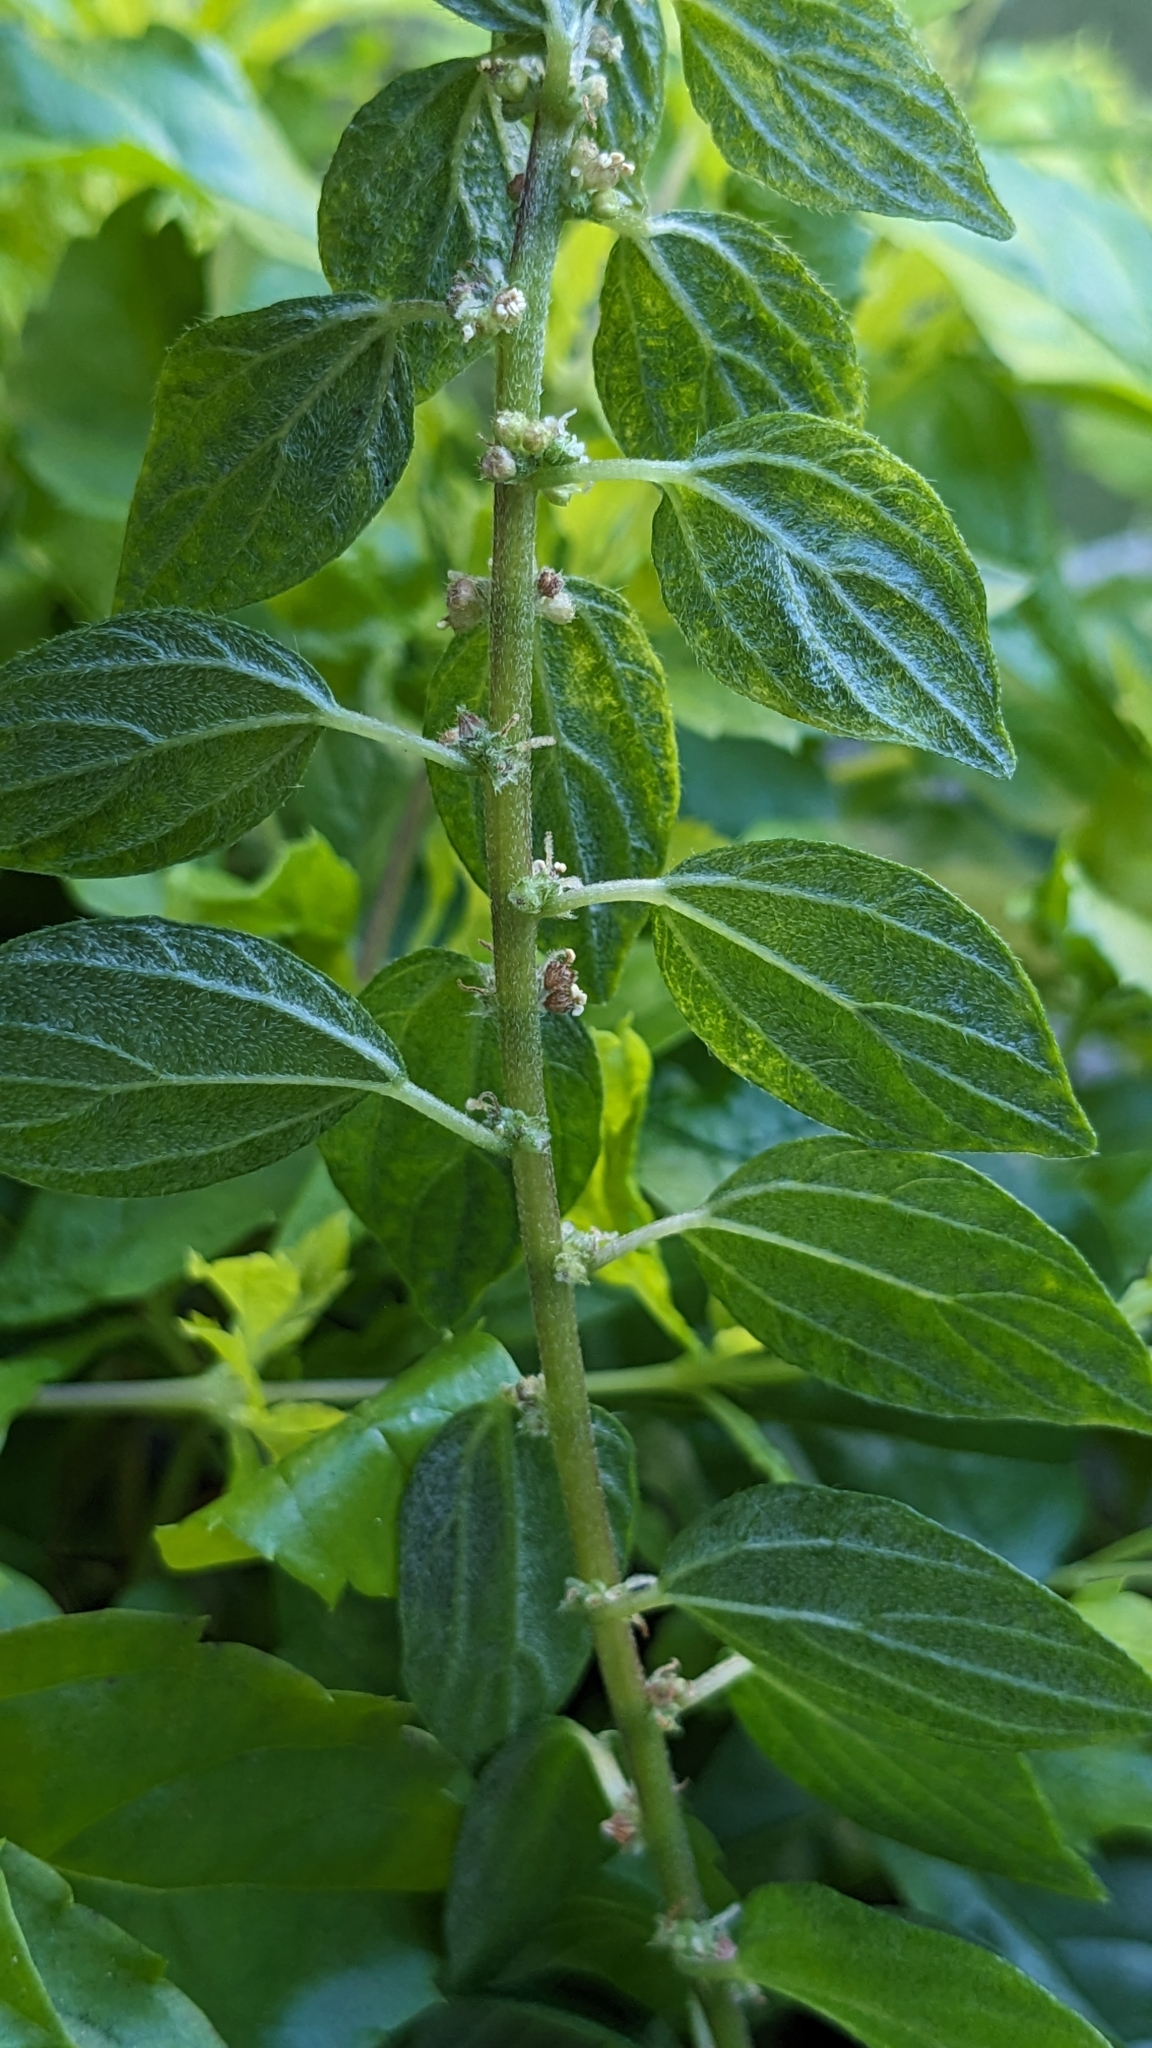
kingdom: Plantae
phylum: Tracheophyta
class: Magnoliopsida
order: Rosales
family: Urticaceae
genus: Pouzolzia
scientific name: Pouzolzia zeylanica
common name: Graceful pouzolzsbush
